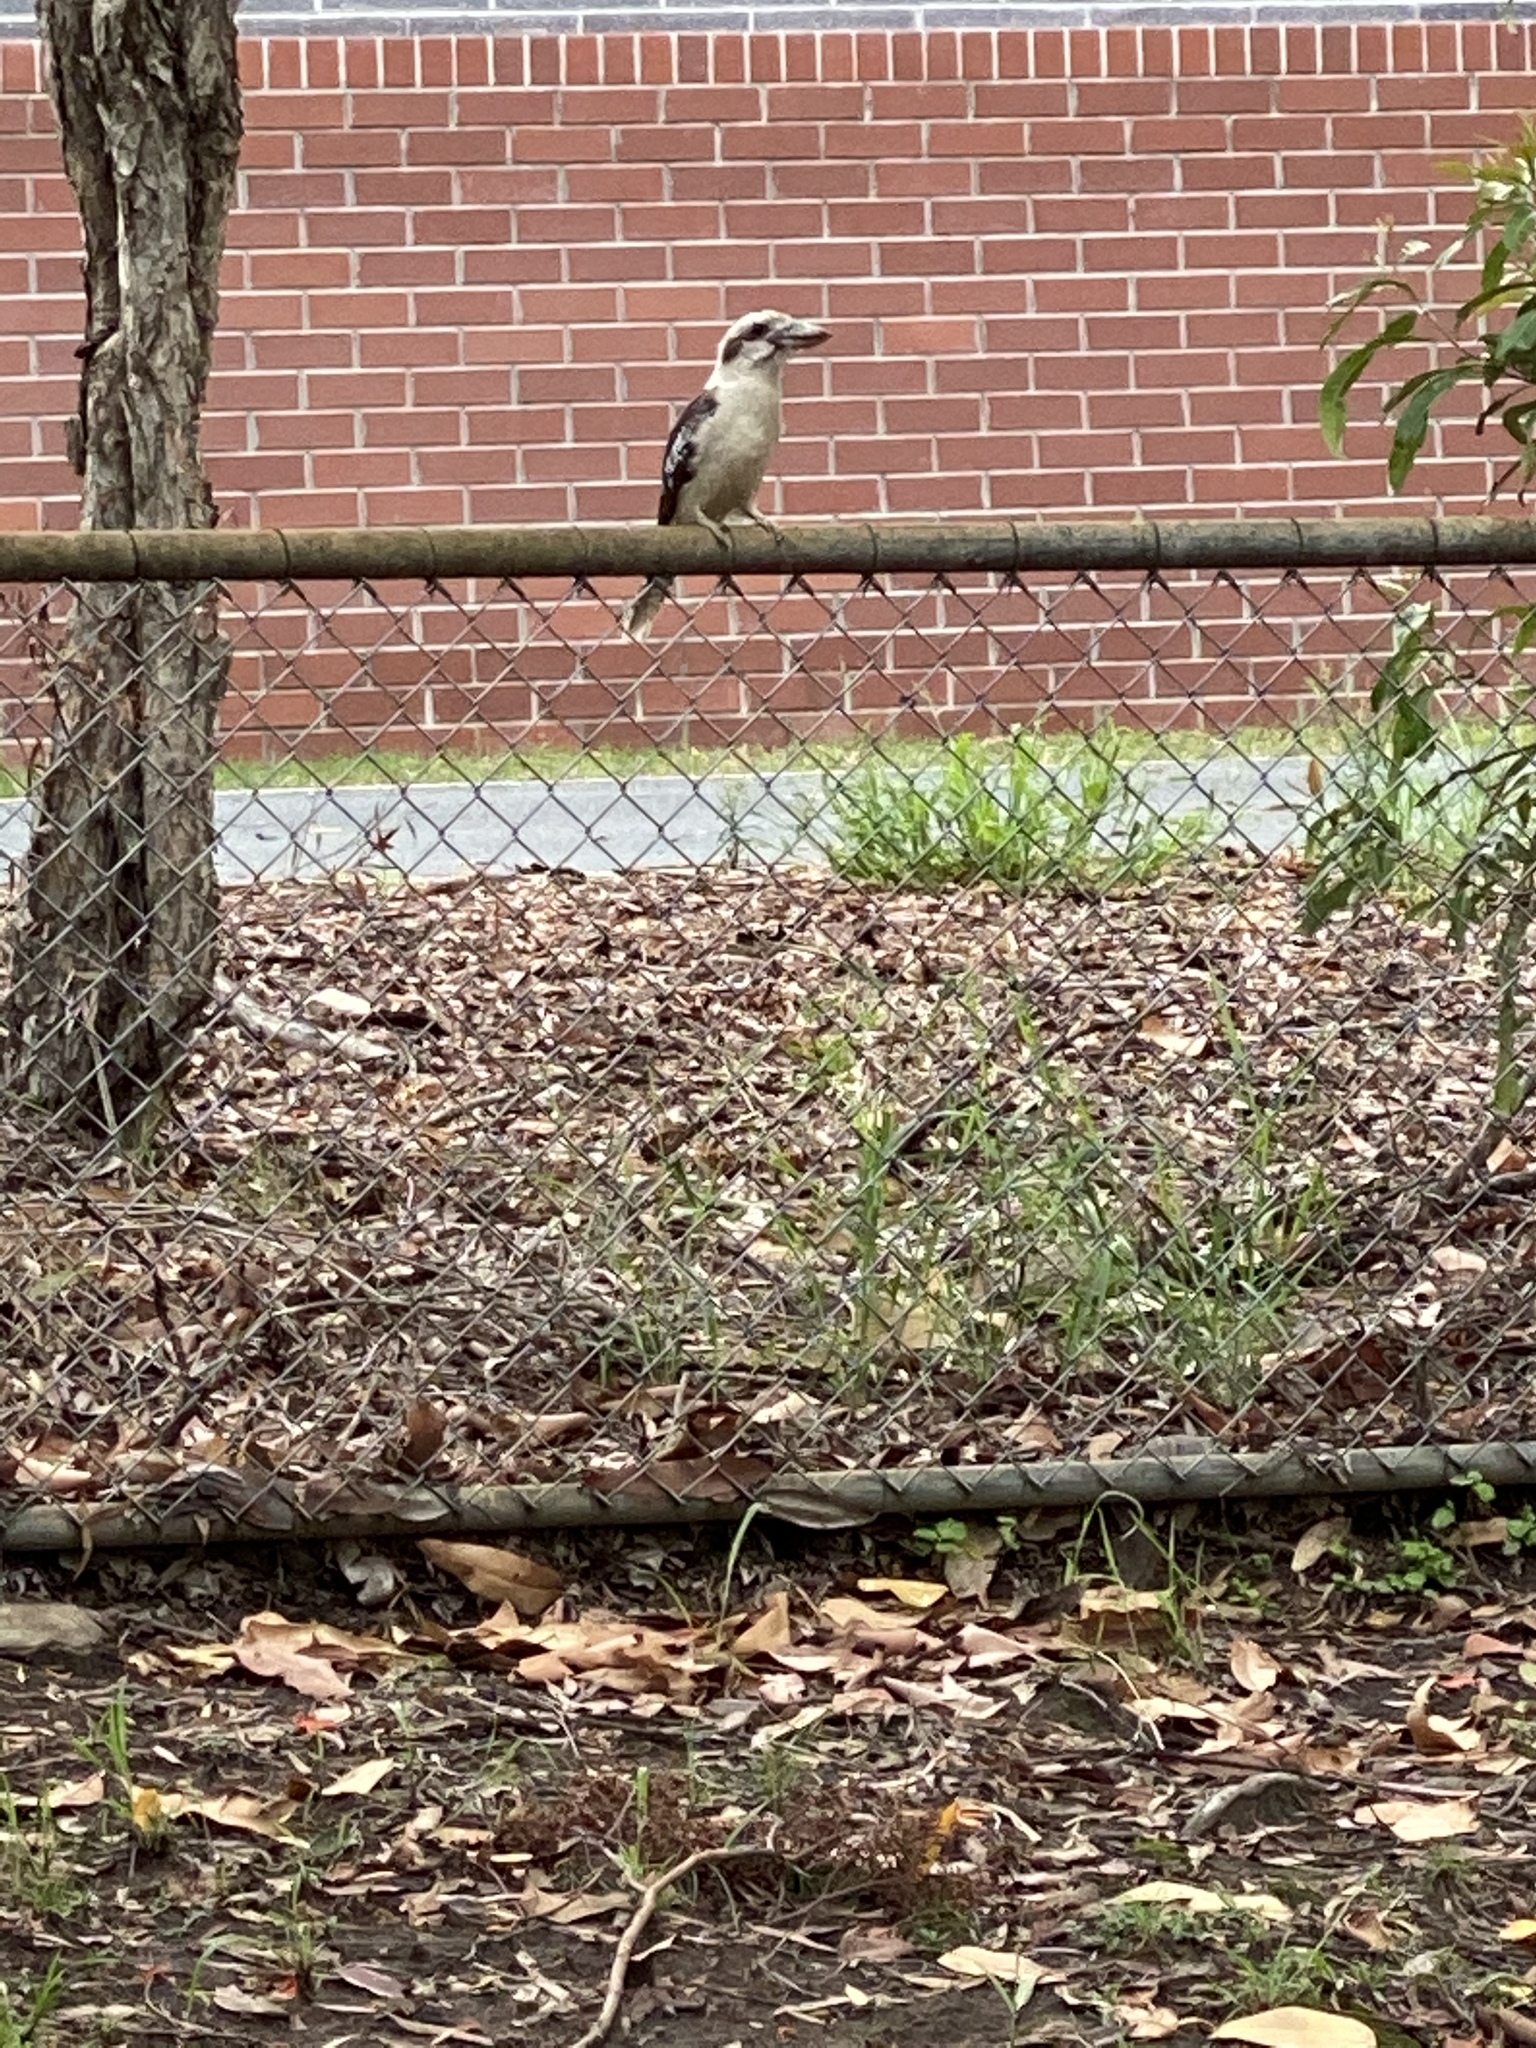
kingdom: Animalia
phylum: Chordata
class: Aves
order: Coraciiformes
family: Alcedinidae
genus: Dacelo
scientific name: Dacelo novaeguineae
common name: Laughing kookaburra
